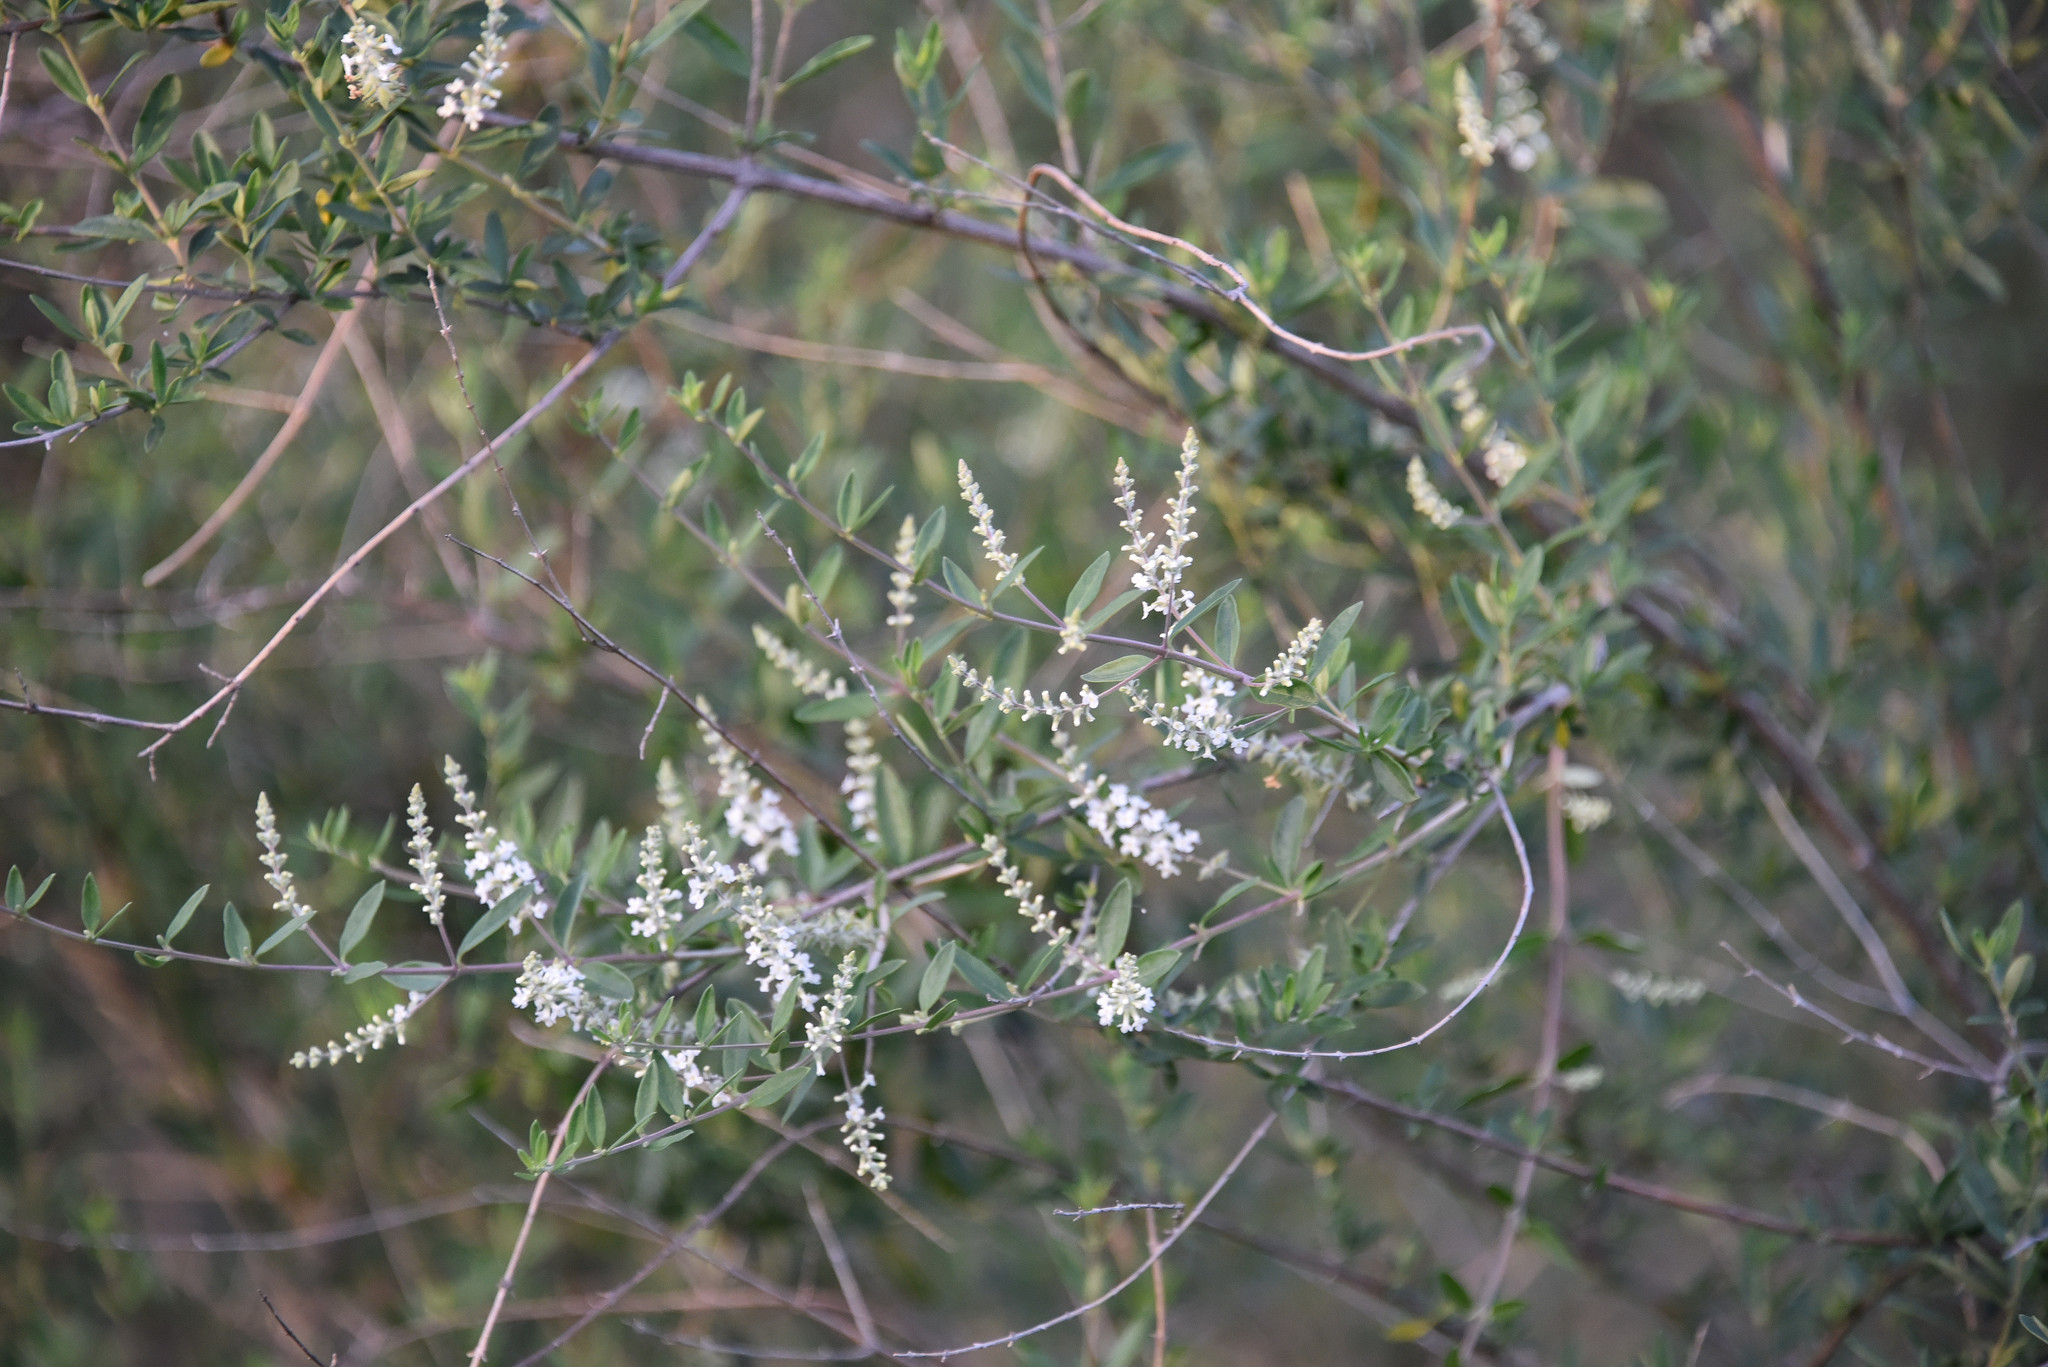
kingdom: Plantae
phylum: Tracheophyta
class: Magnoliopsida
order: Lamiales
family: Verbenaceae
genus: Aloysia
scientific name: Aloysia gratissima
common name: Common bee-brush
